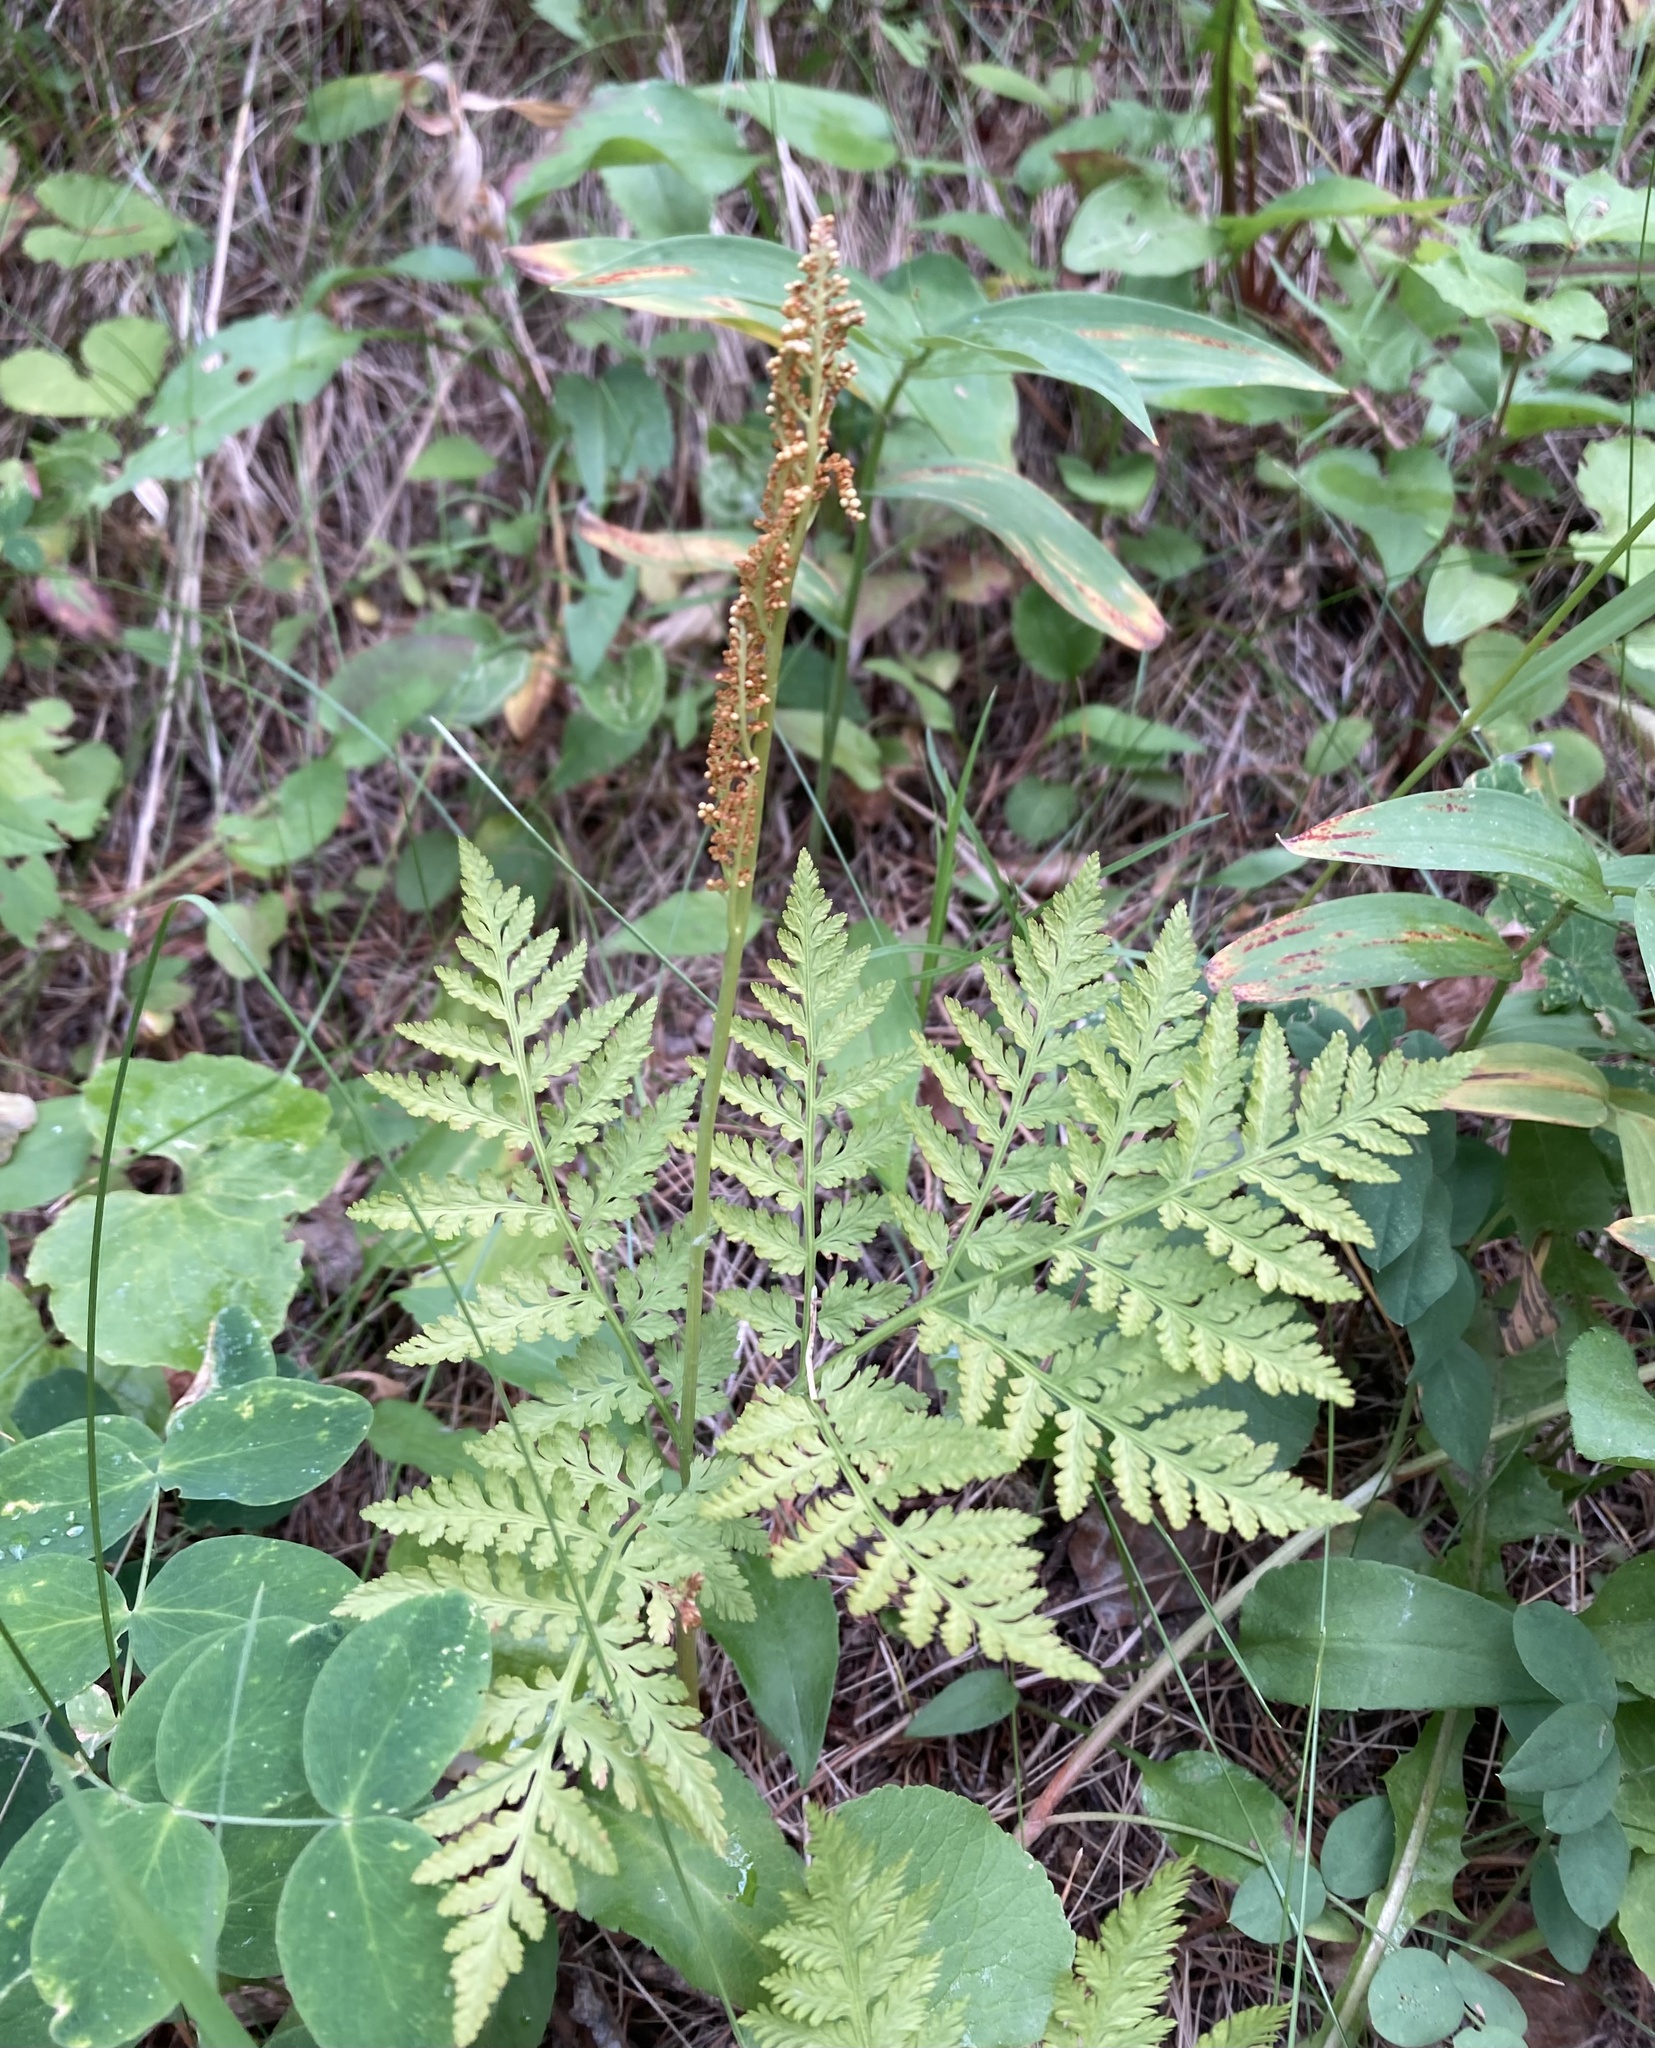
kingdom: Plantae
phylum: Tracheophyta
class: Polypodiopsida
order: Ophioglossales
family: Ophioglossaceae
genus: Botrypus
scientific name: Botrypus virginianus
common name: Common grapefern
